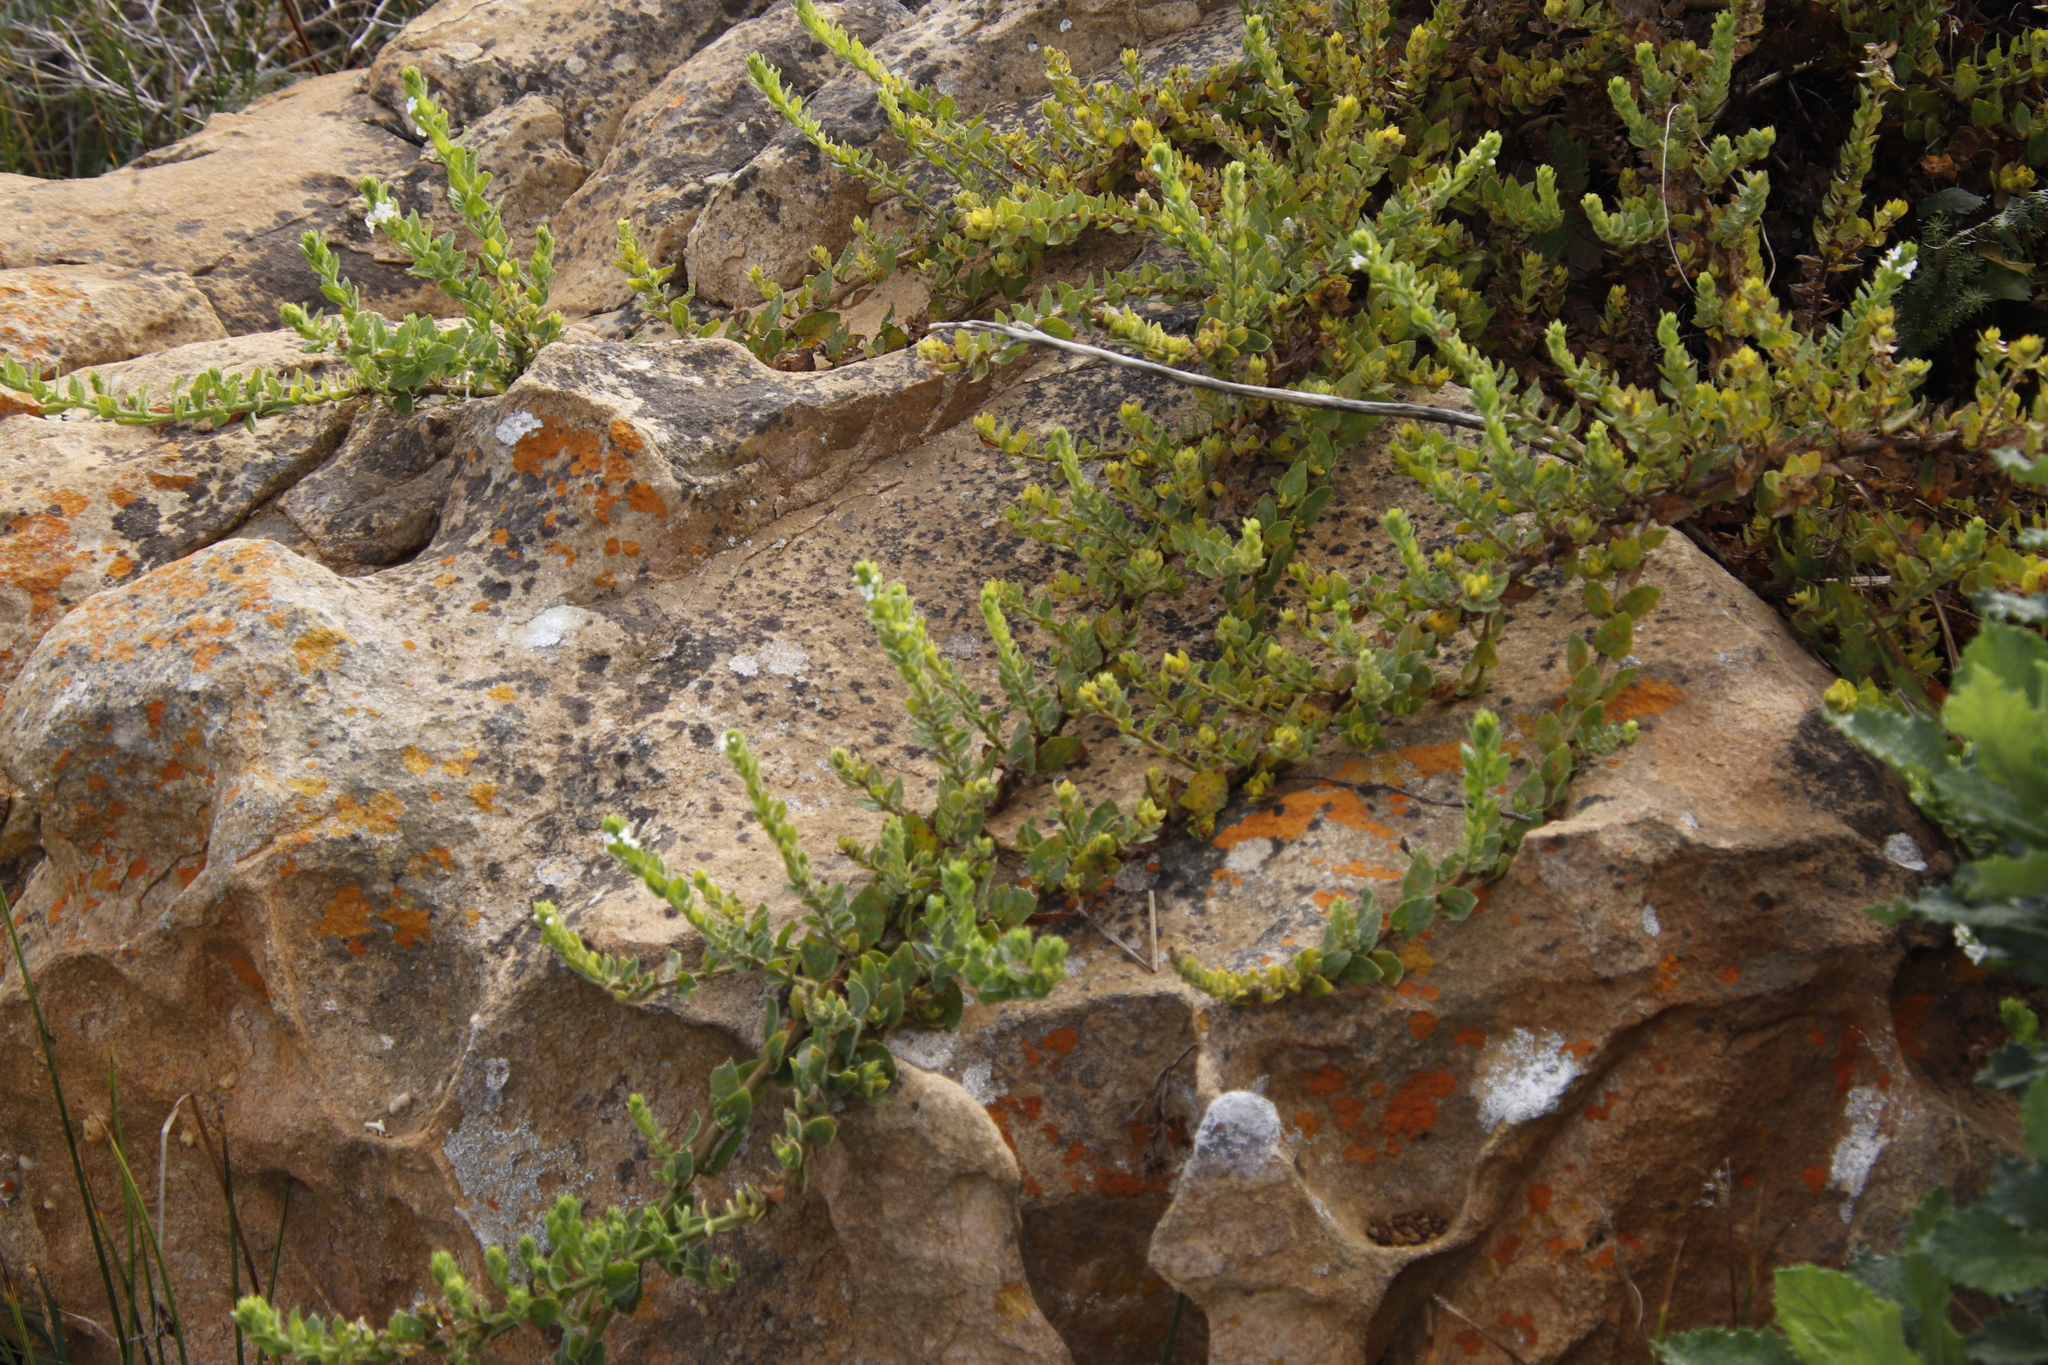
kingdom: Plantae
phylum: Tracheophyta
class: Magnoliopsida
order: Lamiales
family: Scrophulariaceae
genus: Oftia
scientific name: Oftia africana
